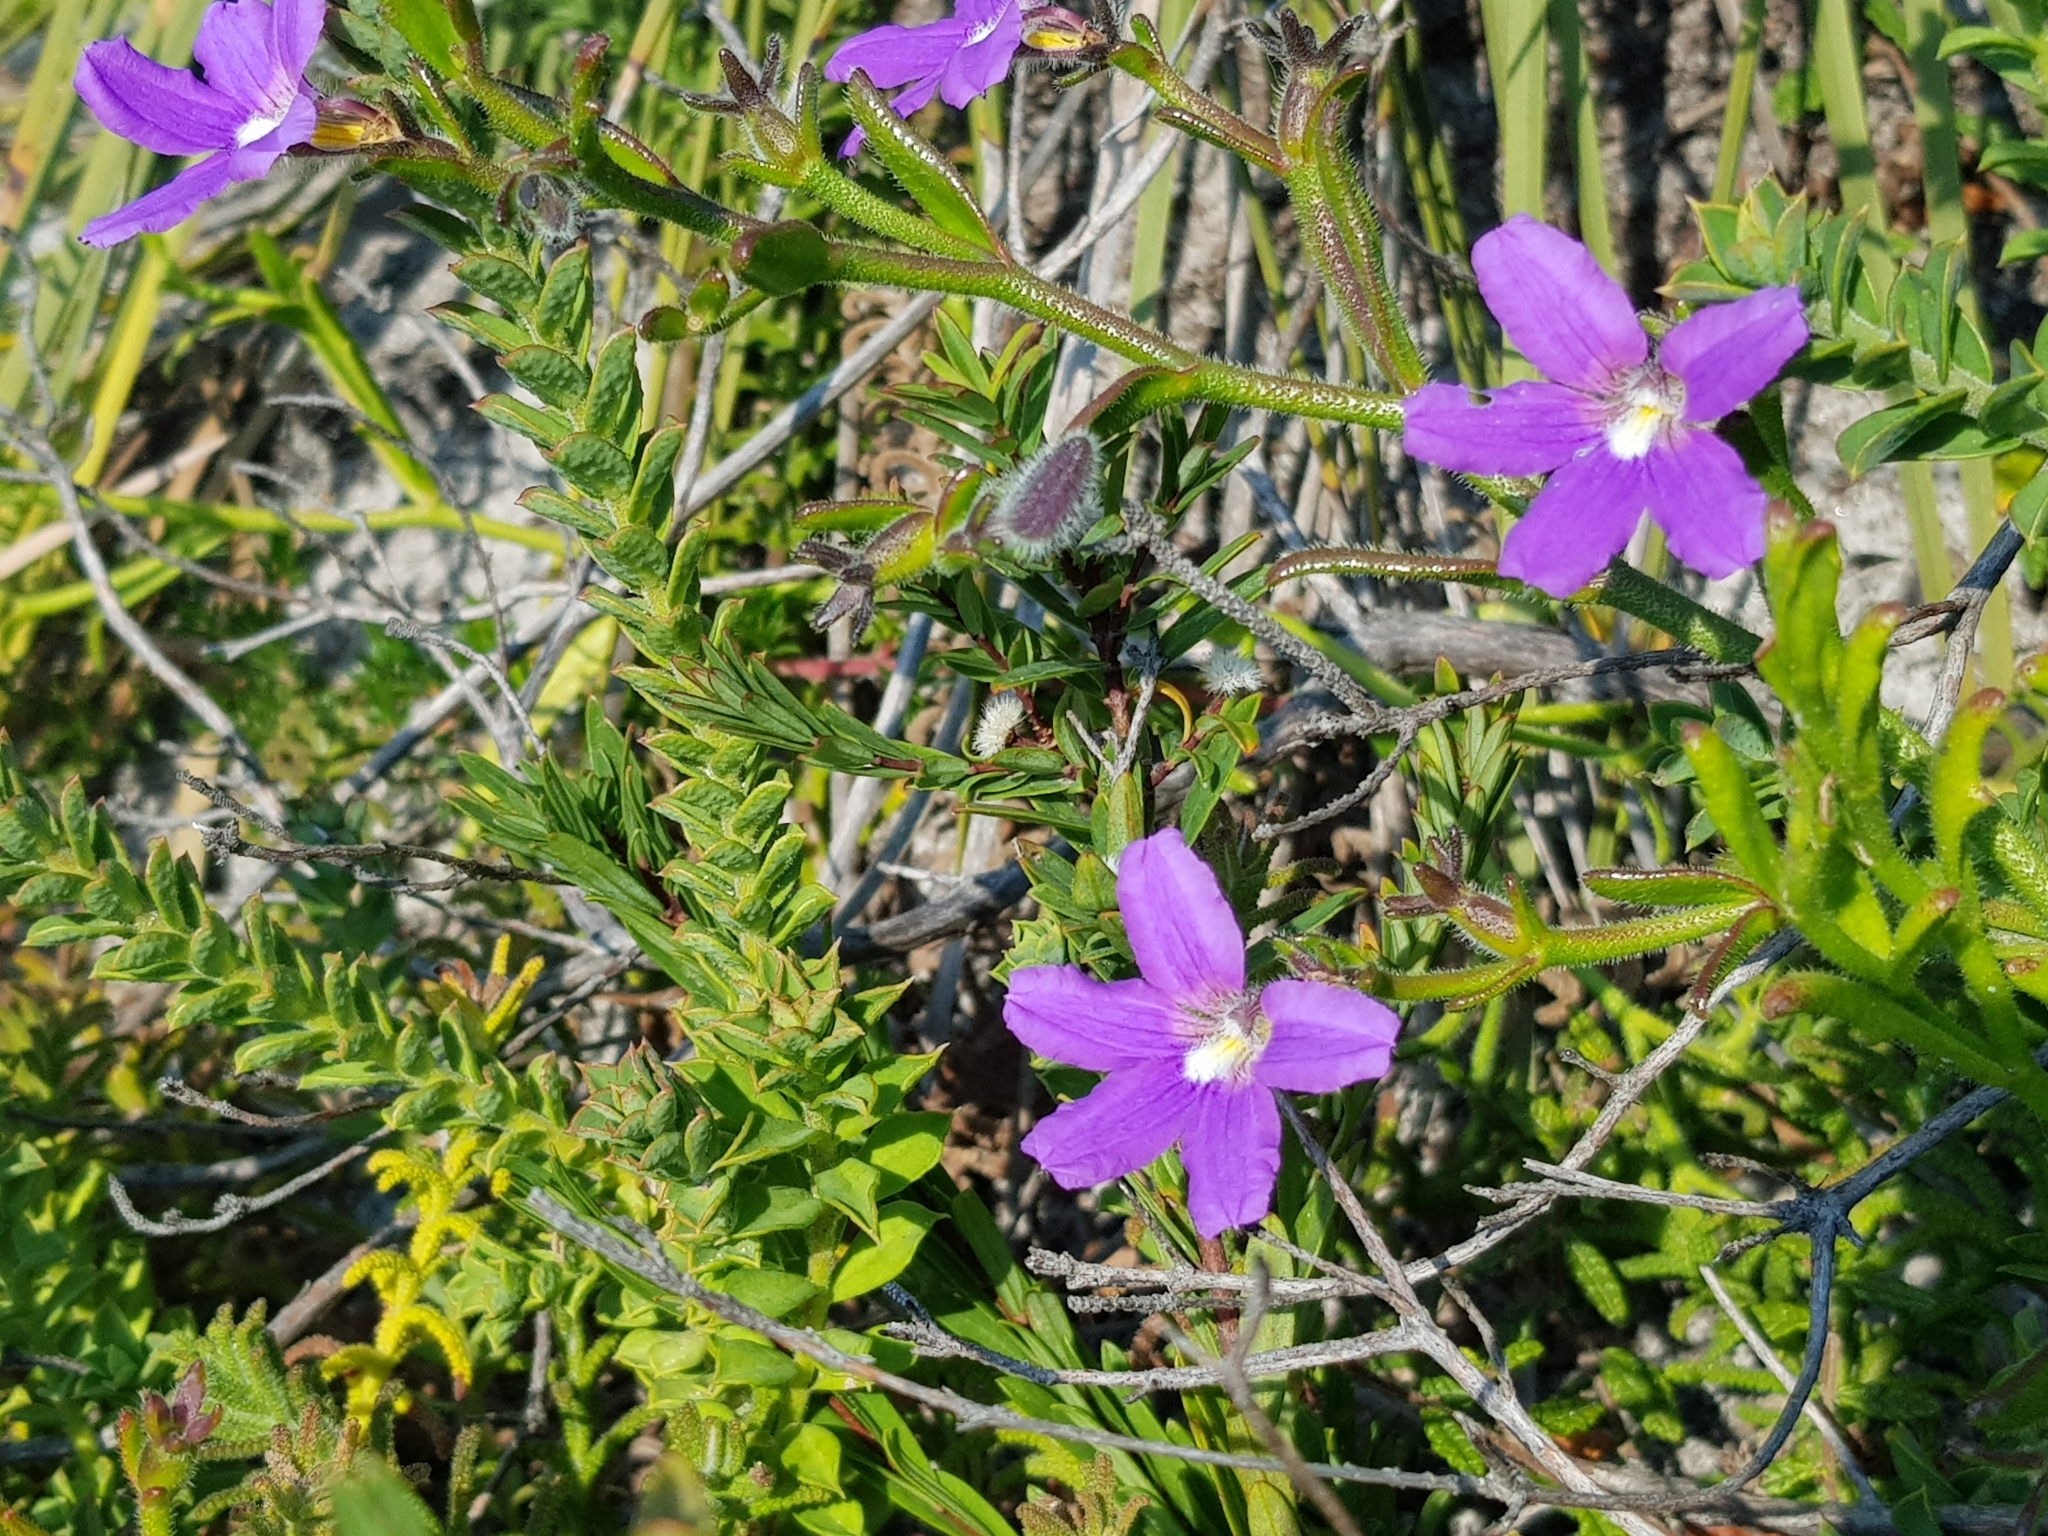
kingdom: Plantae
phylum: Tracheophyta
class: Magnoliopsida
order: Asterales
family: Goodeniaceae
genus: Scaevola
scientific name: Scaevola ramosissima
